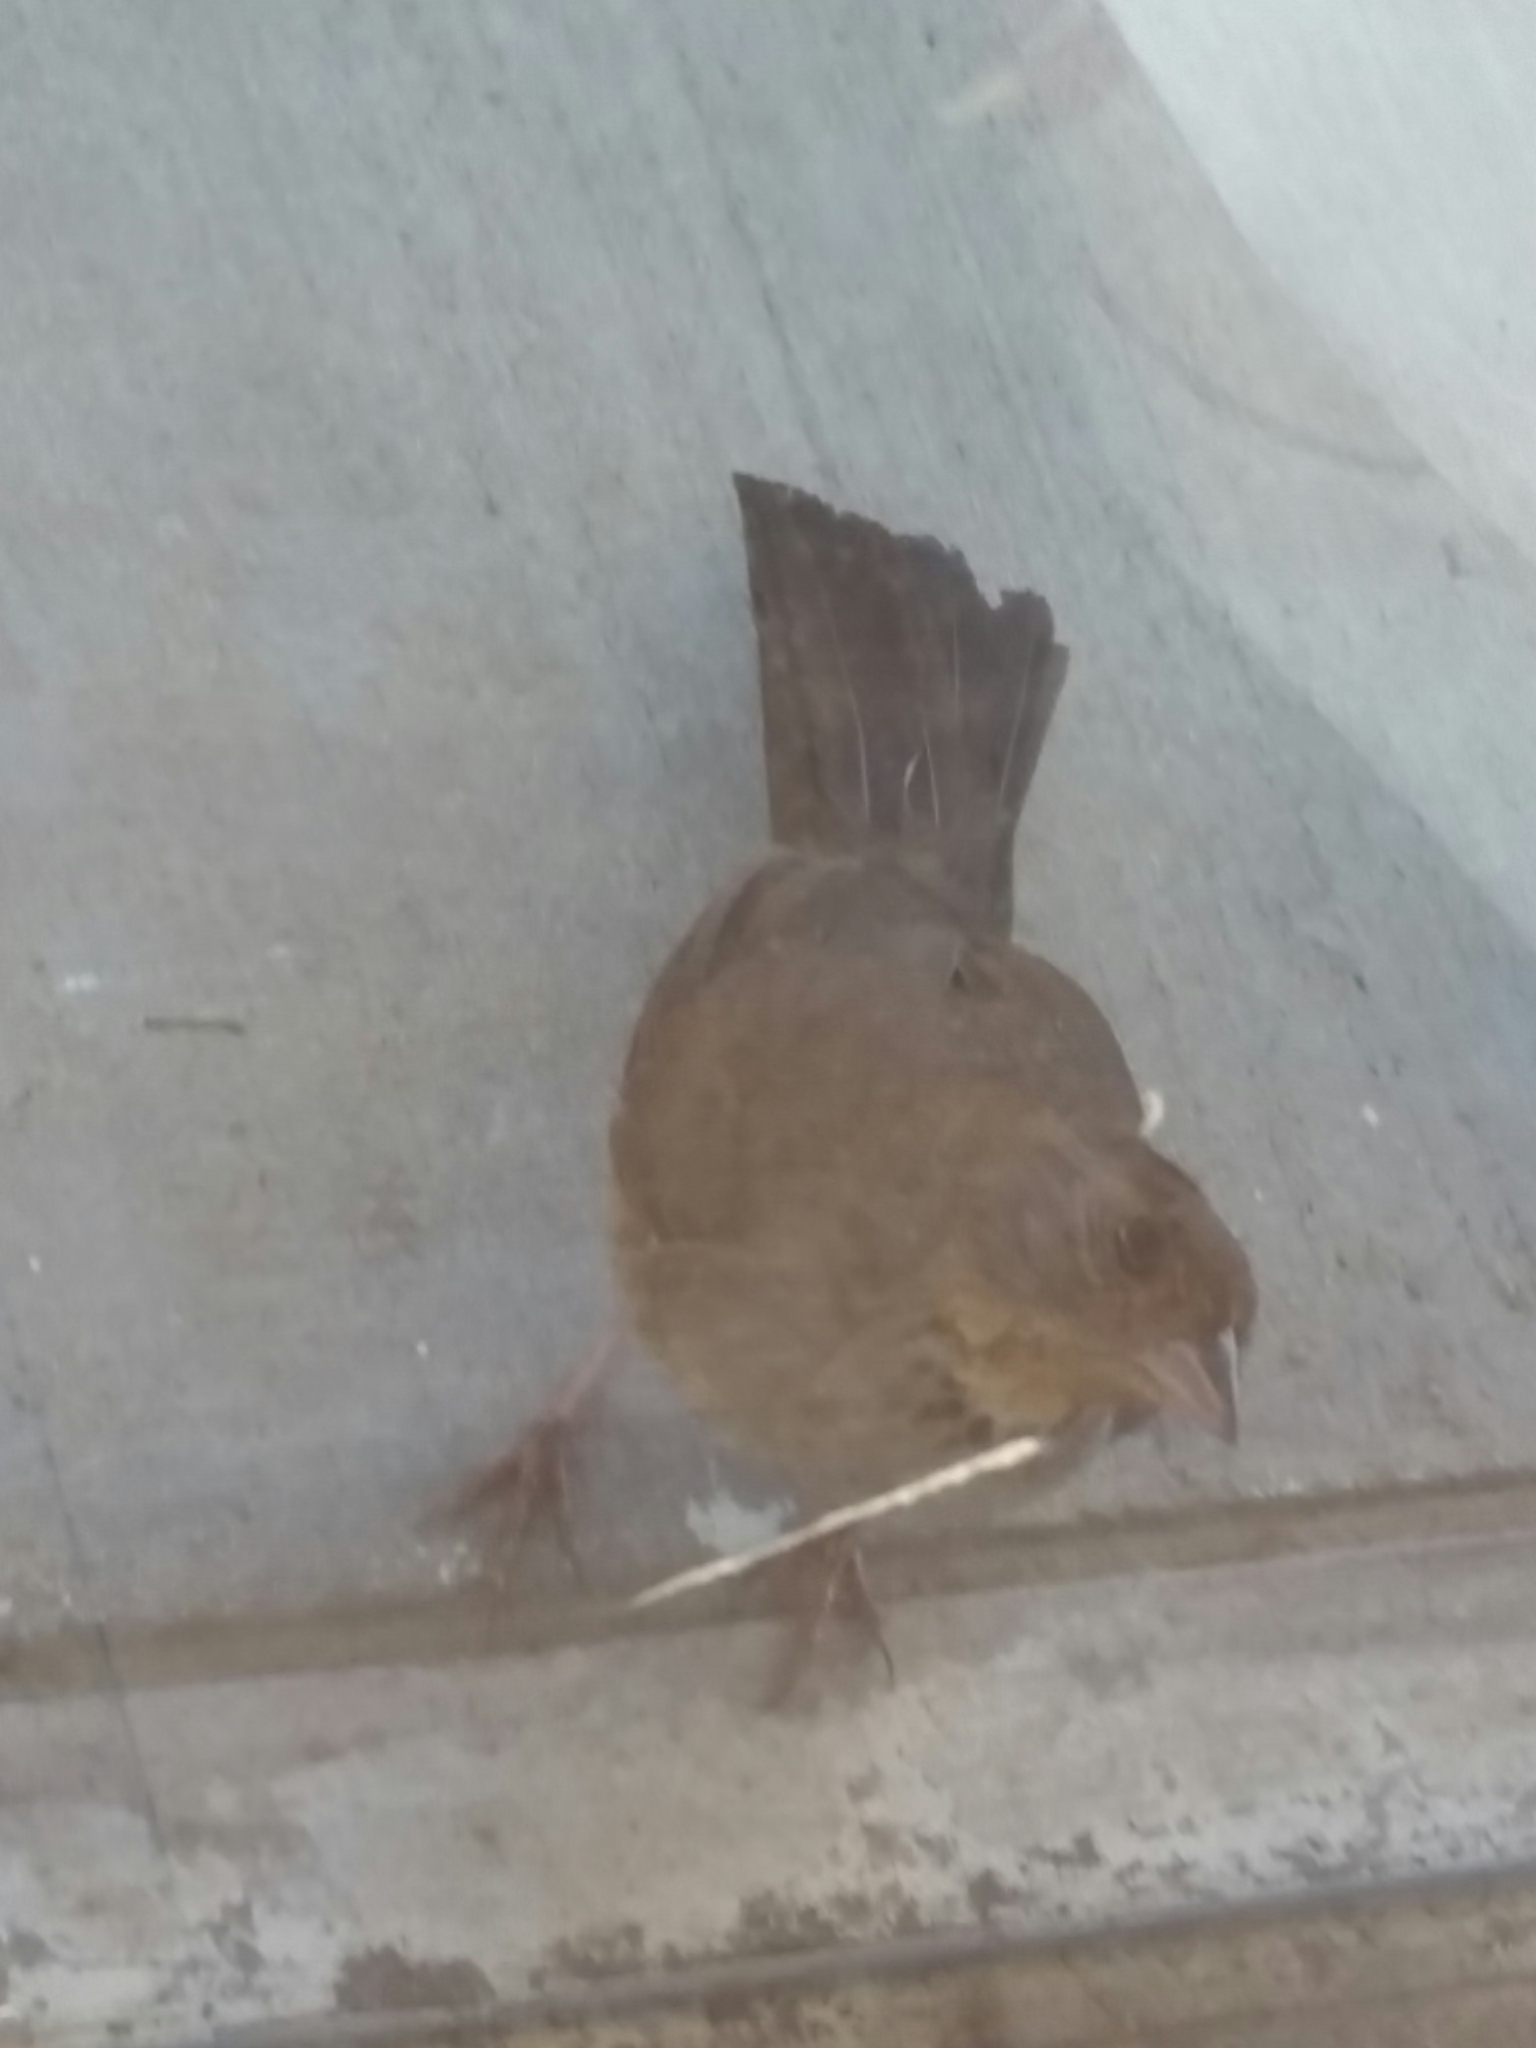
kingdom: Animalia
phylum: Chordata
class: Aves
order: Passeriformes
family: Passerellidae
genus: Melozone
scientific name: Melozone crissalis
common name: California towhee
